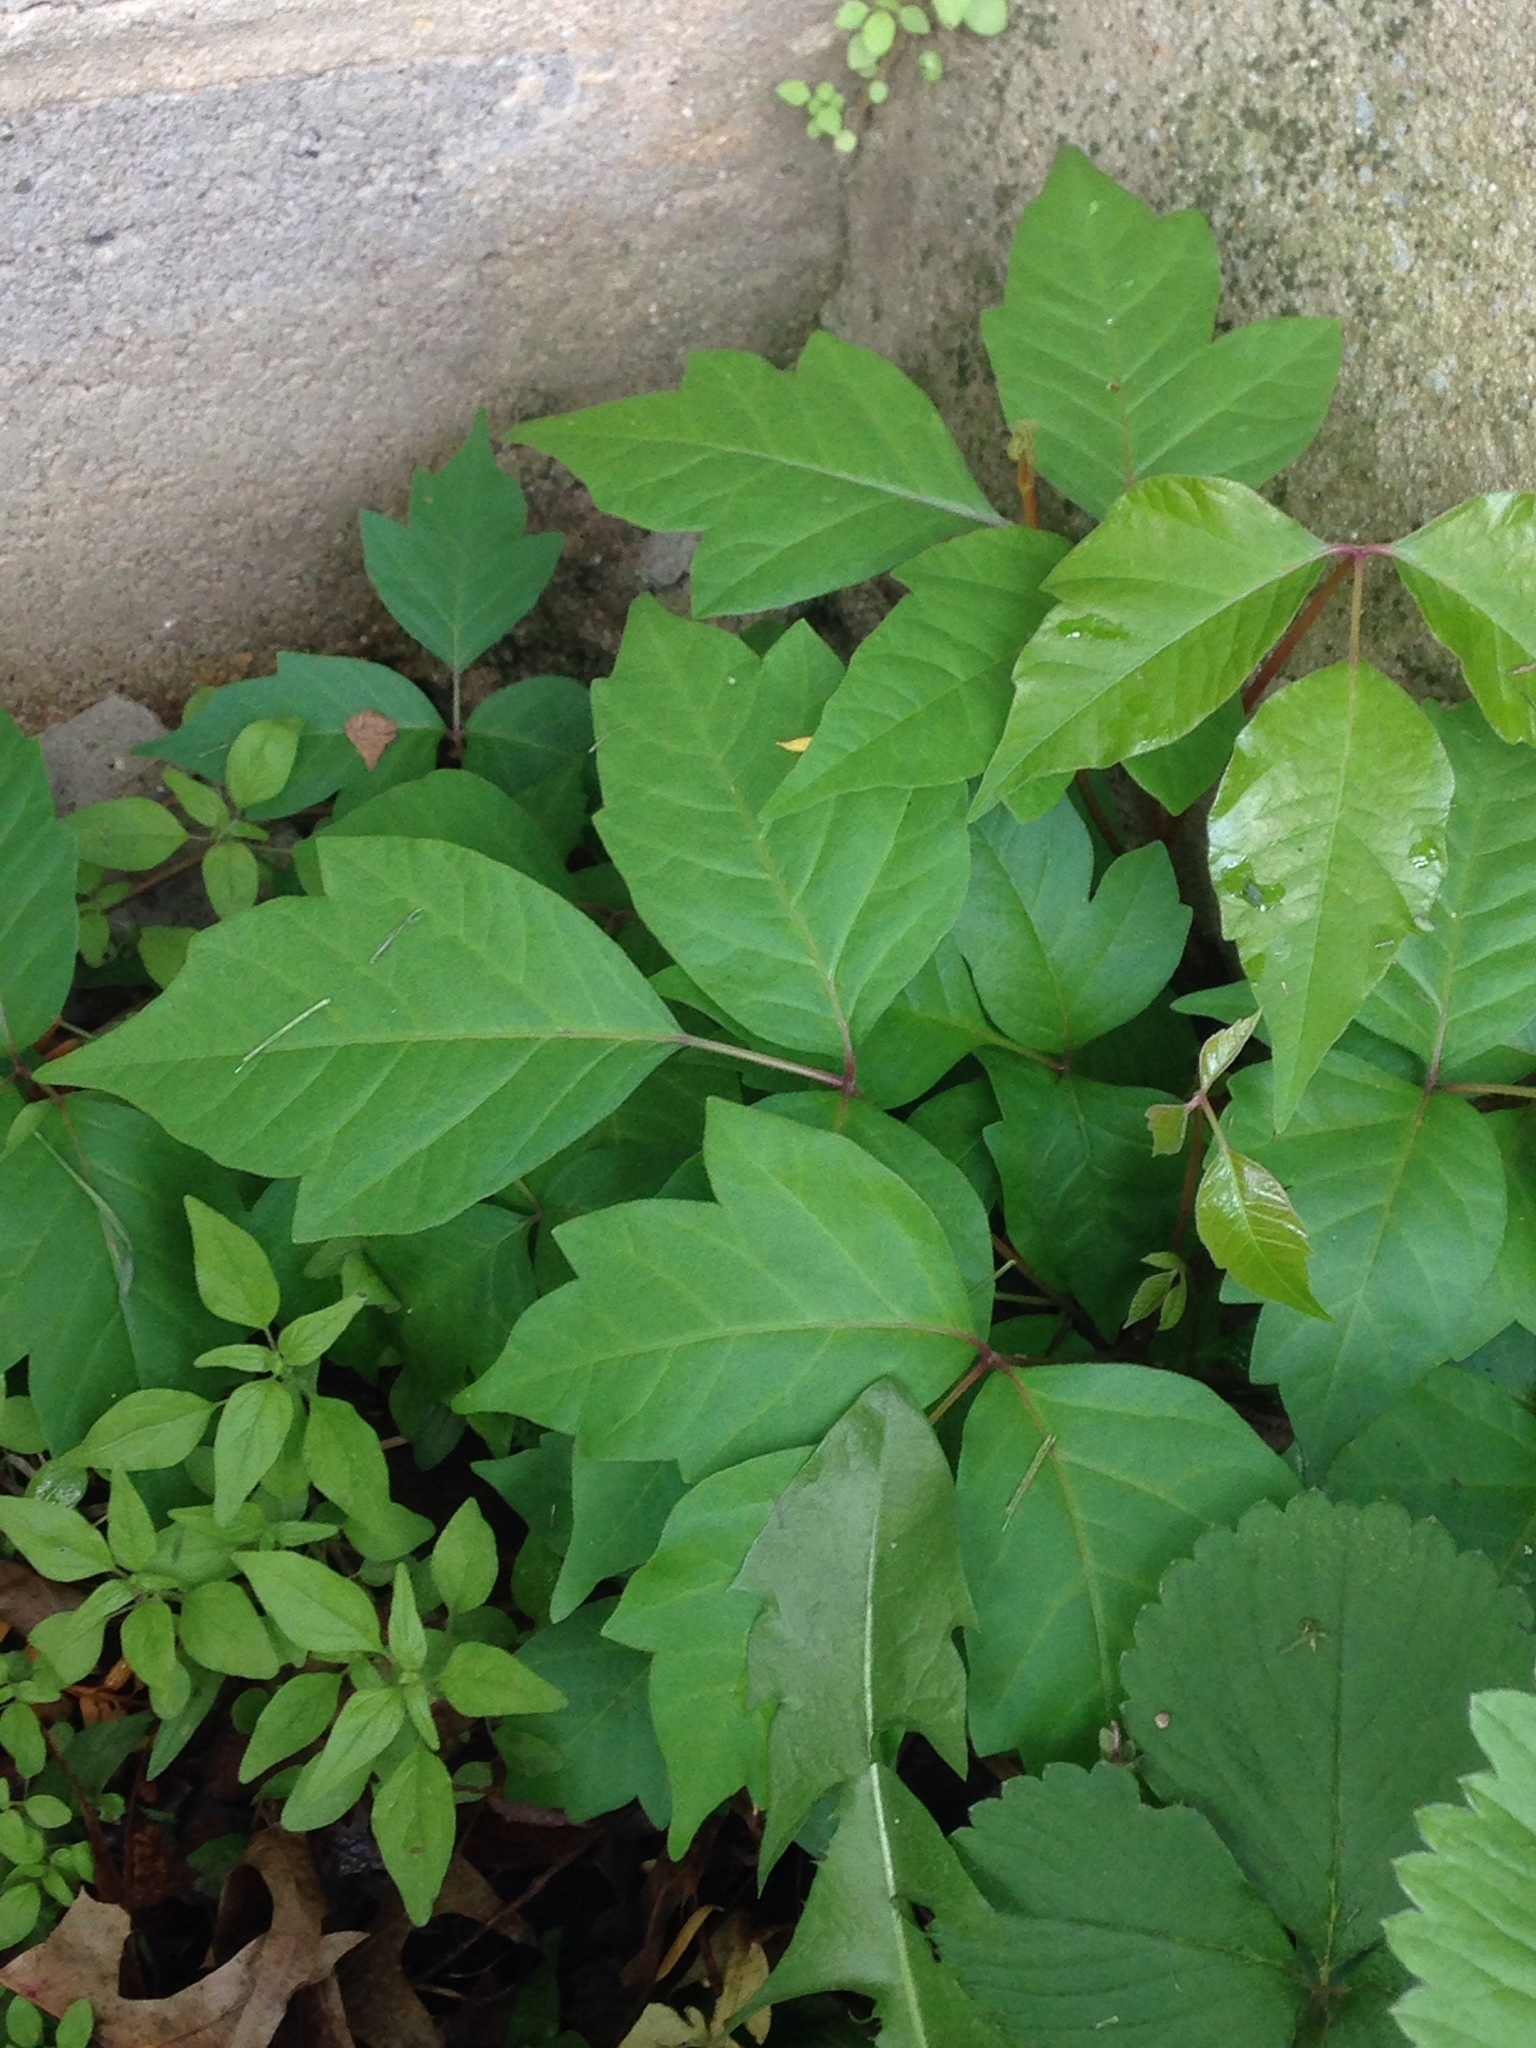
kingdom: Plantae
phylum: Tracheophyta
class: Magnoliopsida
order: Sapindales
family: Anacardiaceae
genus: Toxicodendron
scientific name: Toxicodendron radicans
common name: Poison ivy
